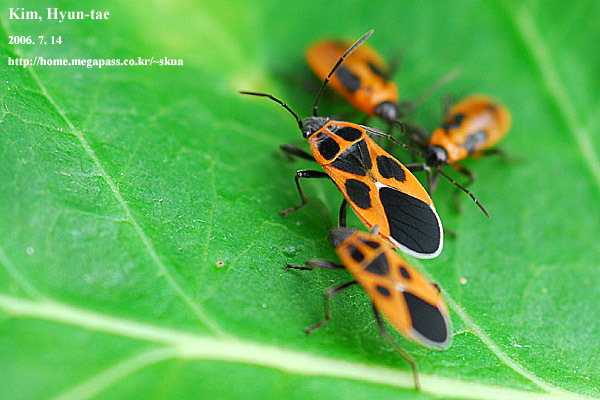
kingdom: Animalia
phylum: Arthropoda
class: Insecta
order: Hemiptera
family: Lygaeidae
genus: Tropidothorax
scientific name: Tropidothorax cruciger
